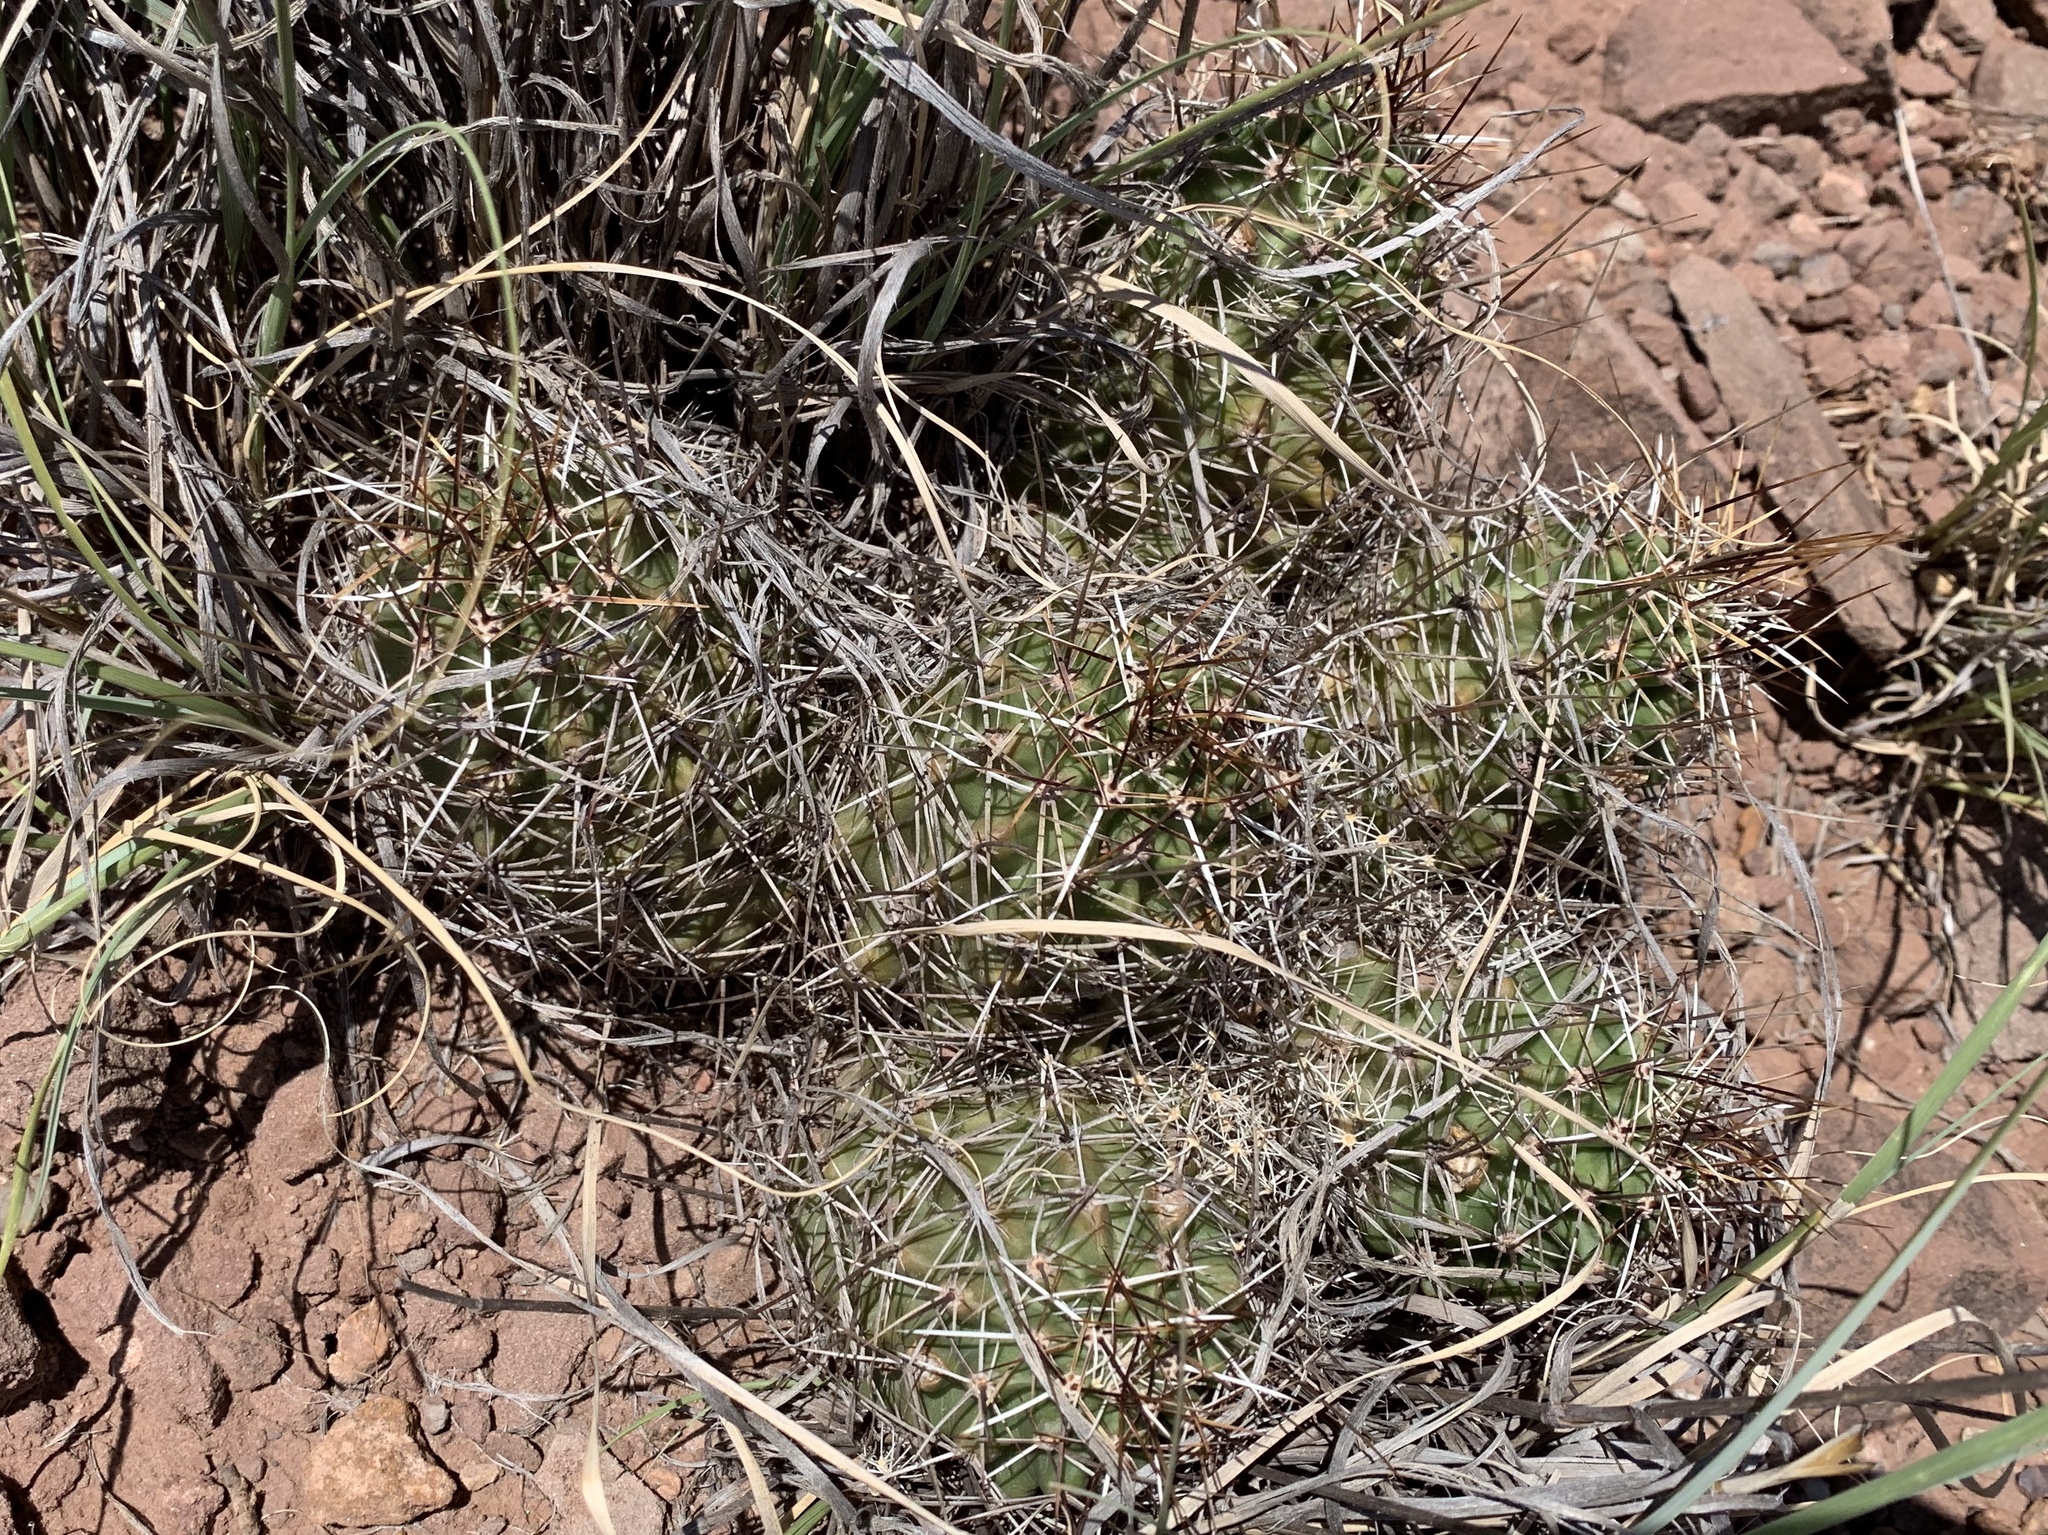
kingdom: Plantae
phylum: Tracheophyta
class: Magnoliopsida
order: Caryophyllales
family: Cactaceae
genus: Echinocereus
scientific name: Echinocereus fendleri
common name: Fendler's hedgehog cactus
